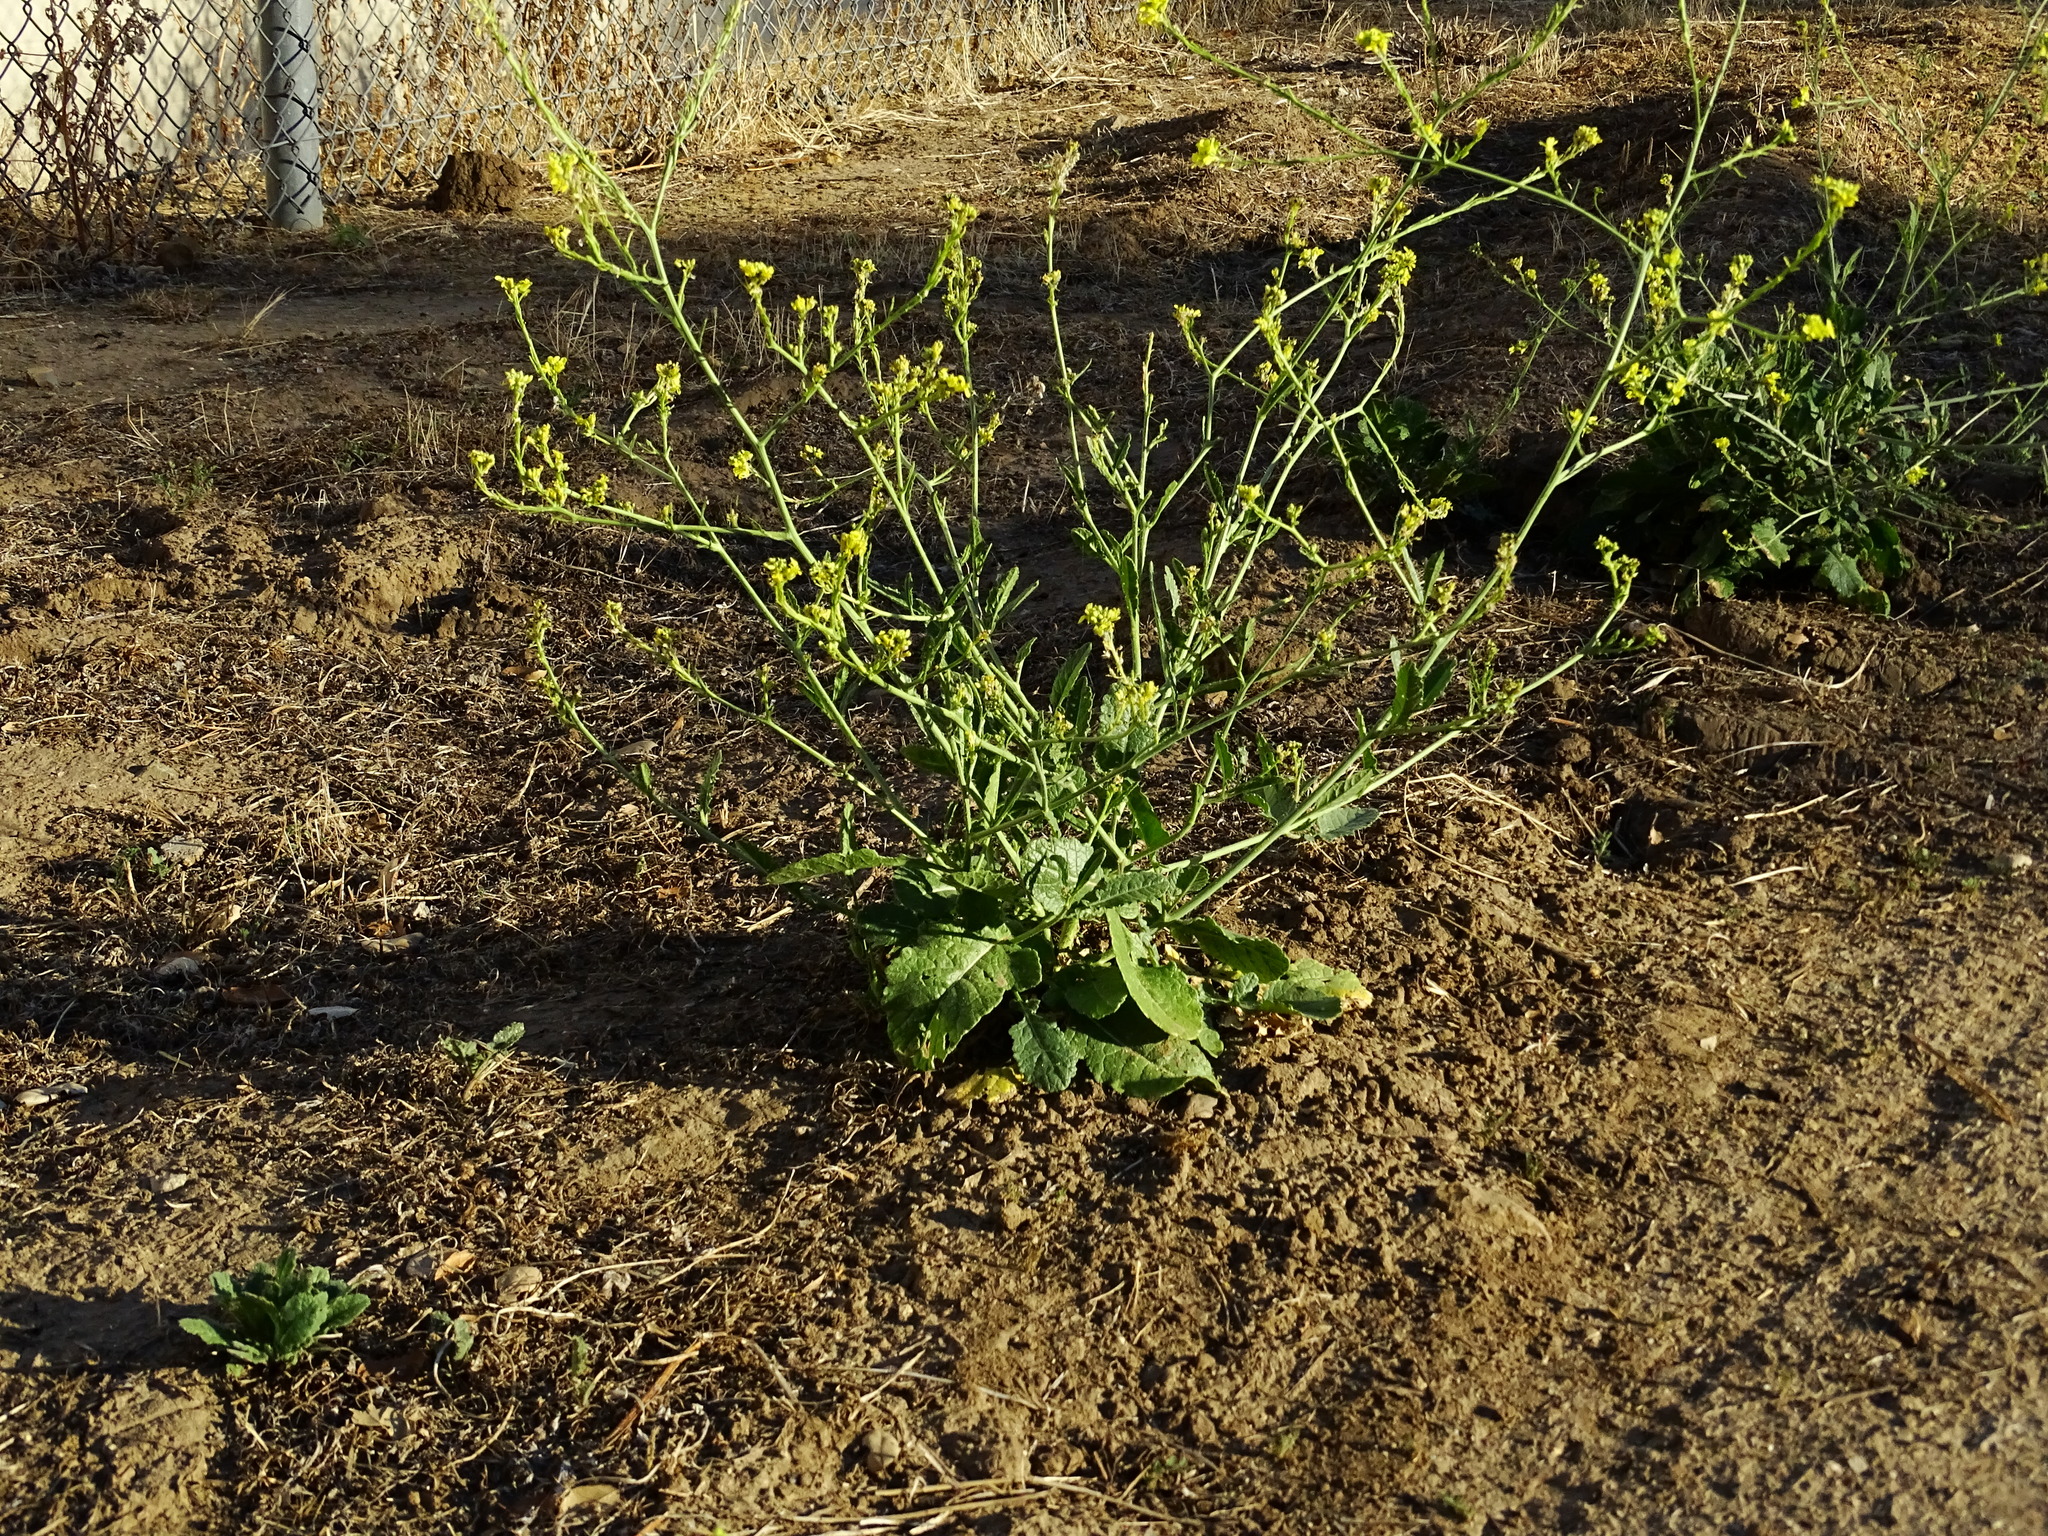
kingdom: Plantae
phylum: Tracheophyta
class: Magnoliopsida
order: Brassicales
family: Brassicaceae
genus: Hirschfeldia
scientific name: Hirschfeldia incana
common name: Hoary mustard
